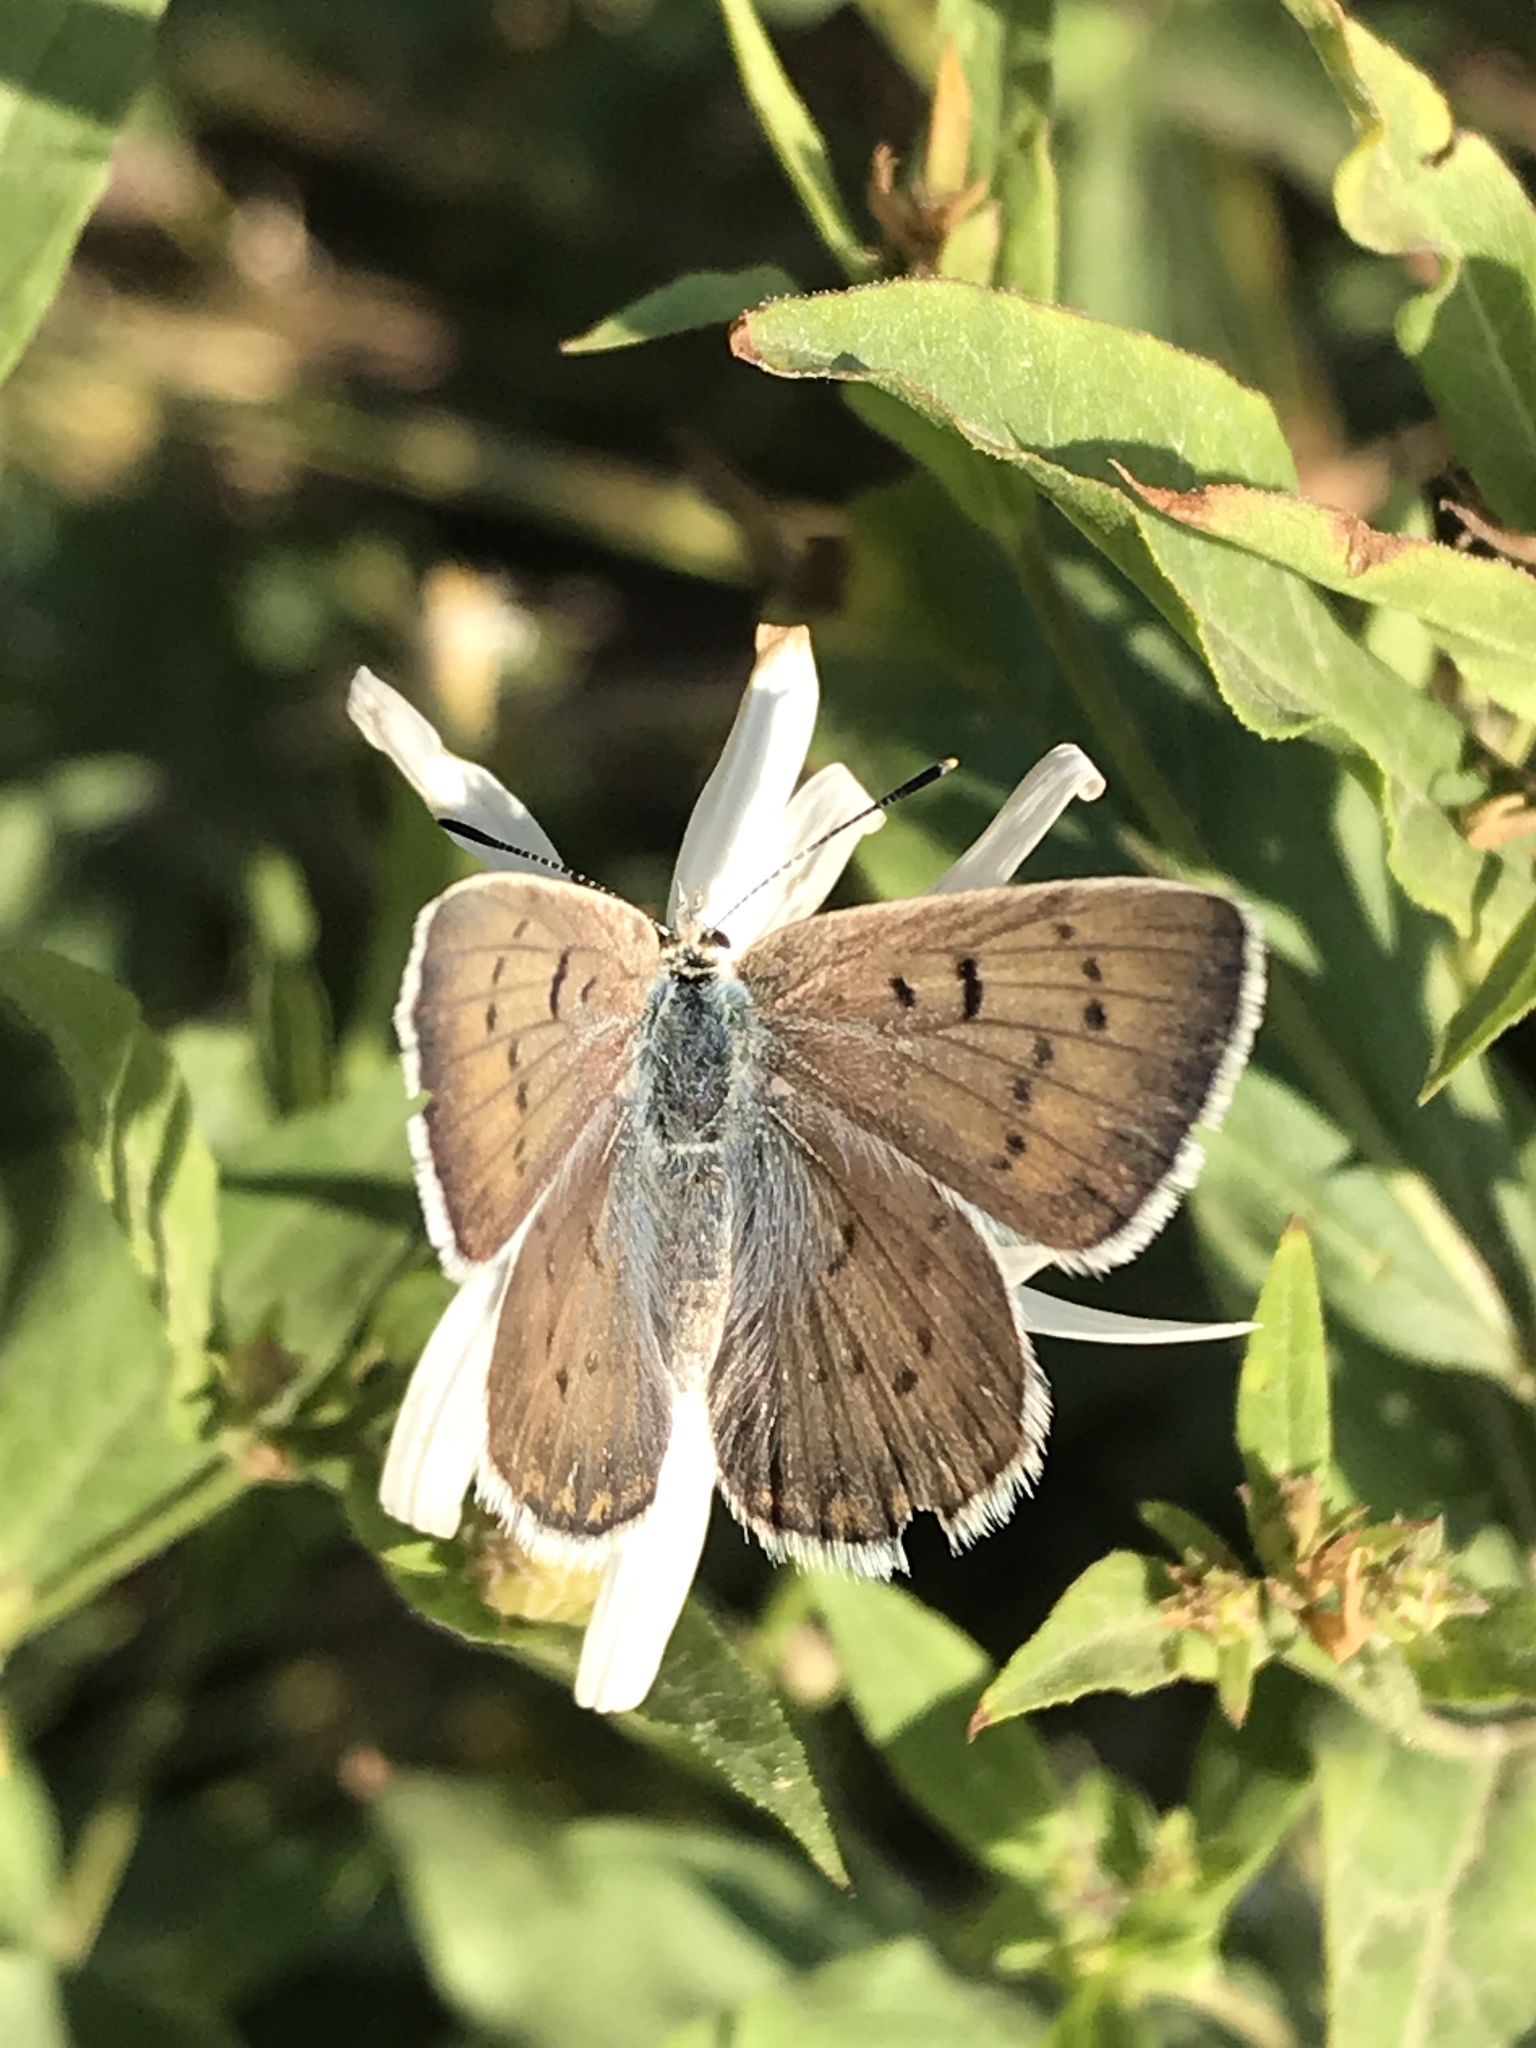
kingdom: Animalia
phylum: Arthropoda
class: Insecta
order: Lepidoptera
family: Lycaenidae
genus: Tharsalea
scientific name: Tharsalea heteronea
